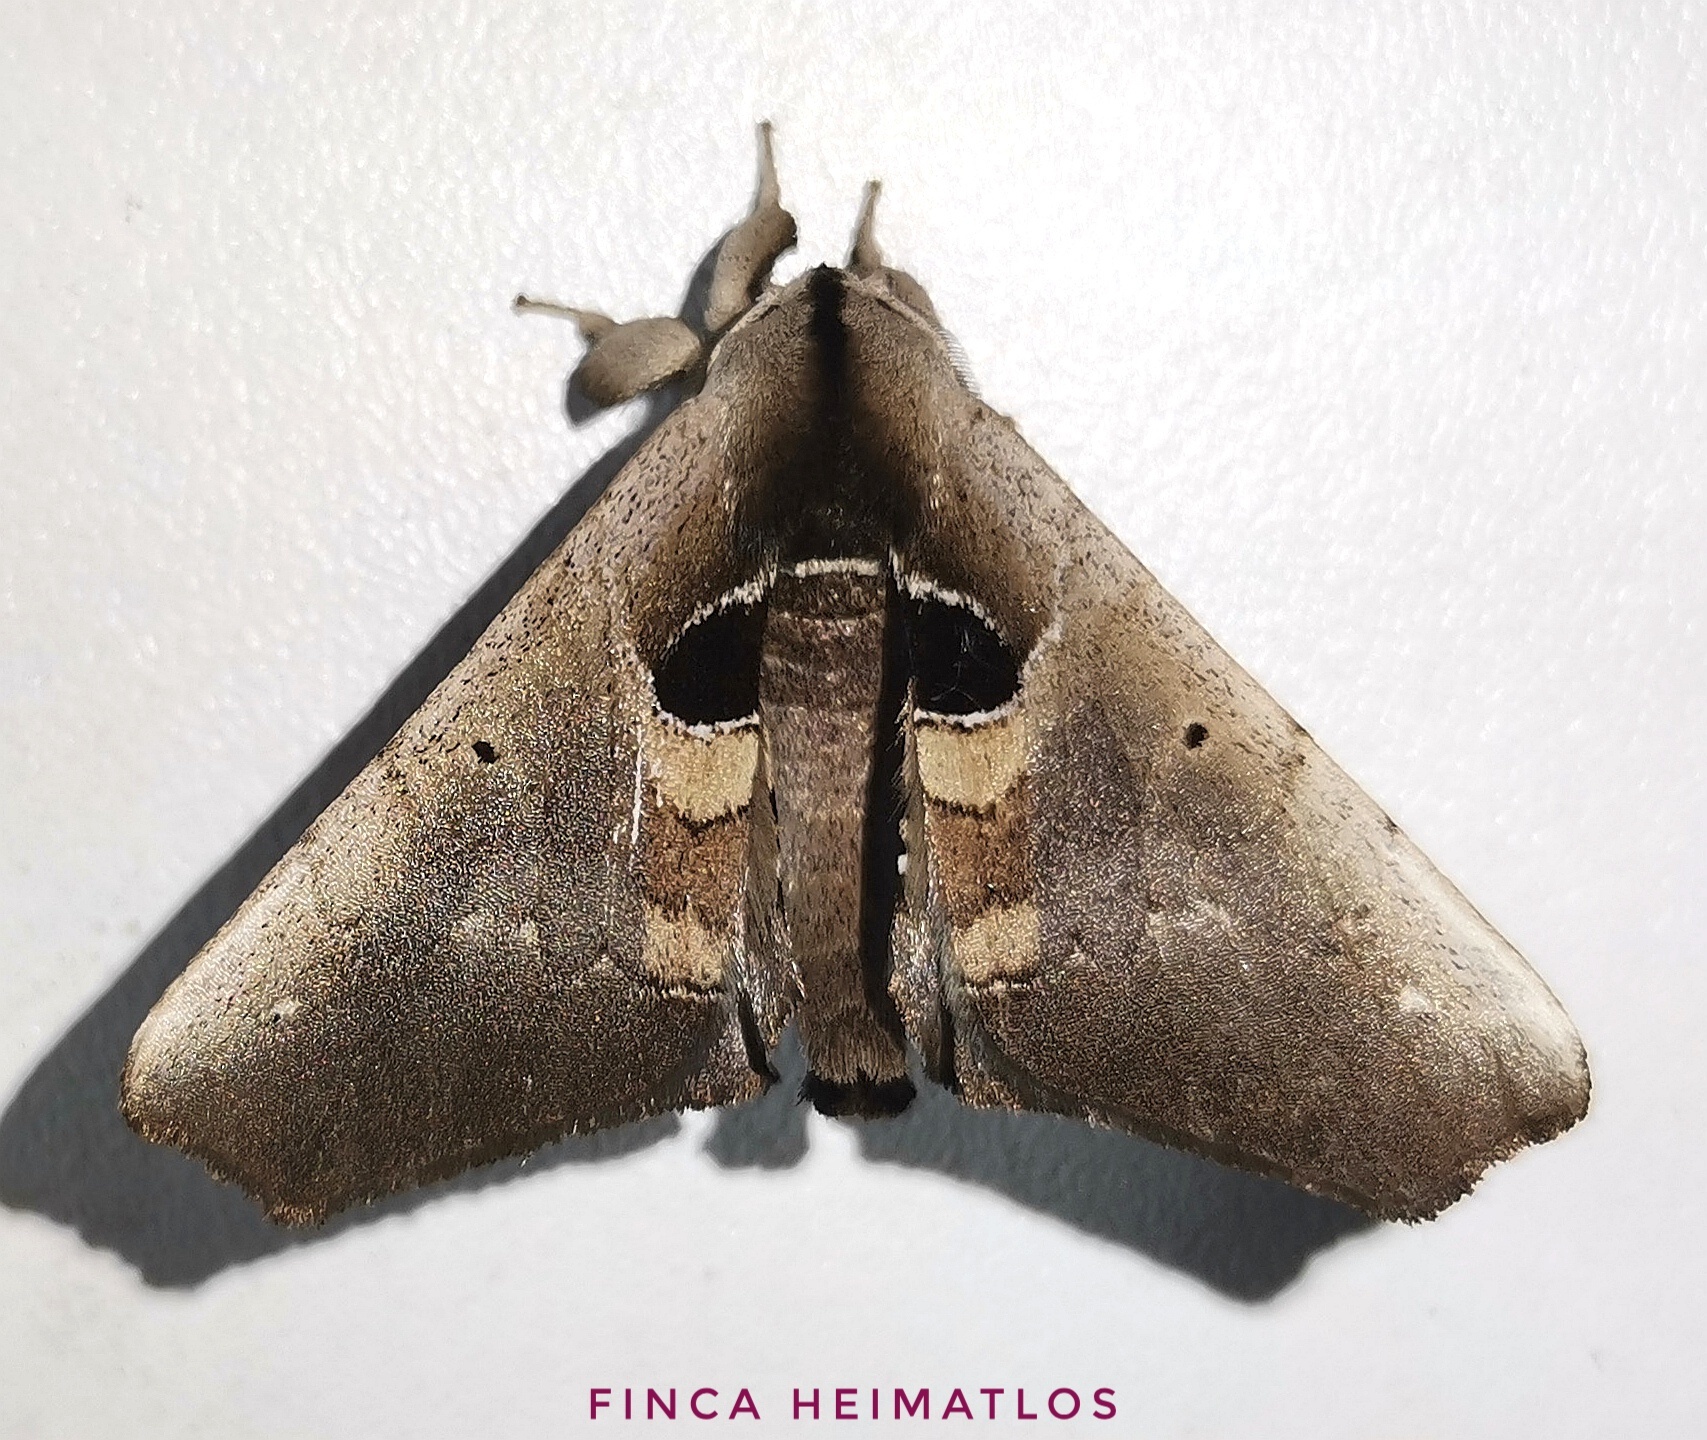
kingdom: Animalia
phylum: Arthropoda
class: Insecta
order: Lepidoptera
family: Apatelodidae
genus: Hygrochroa
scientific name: Hygrochroa Apatelodes cirna
